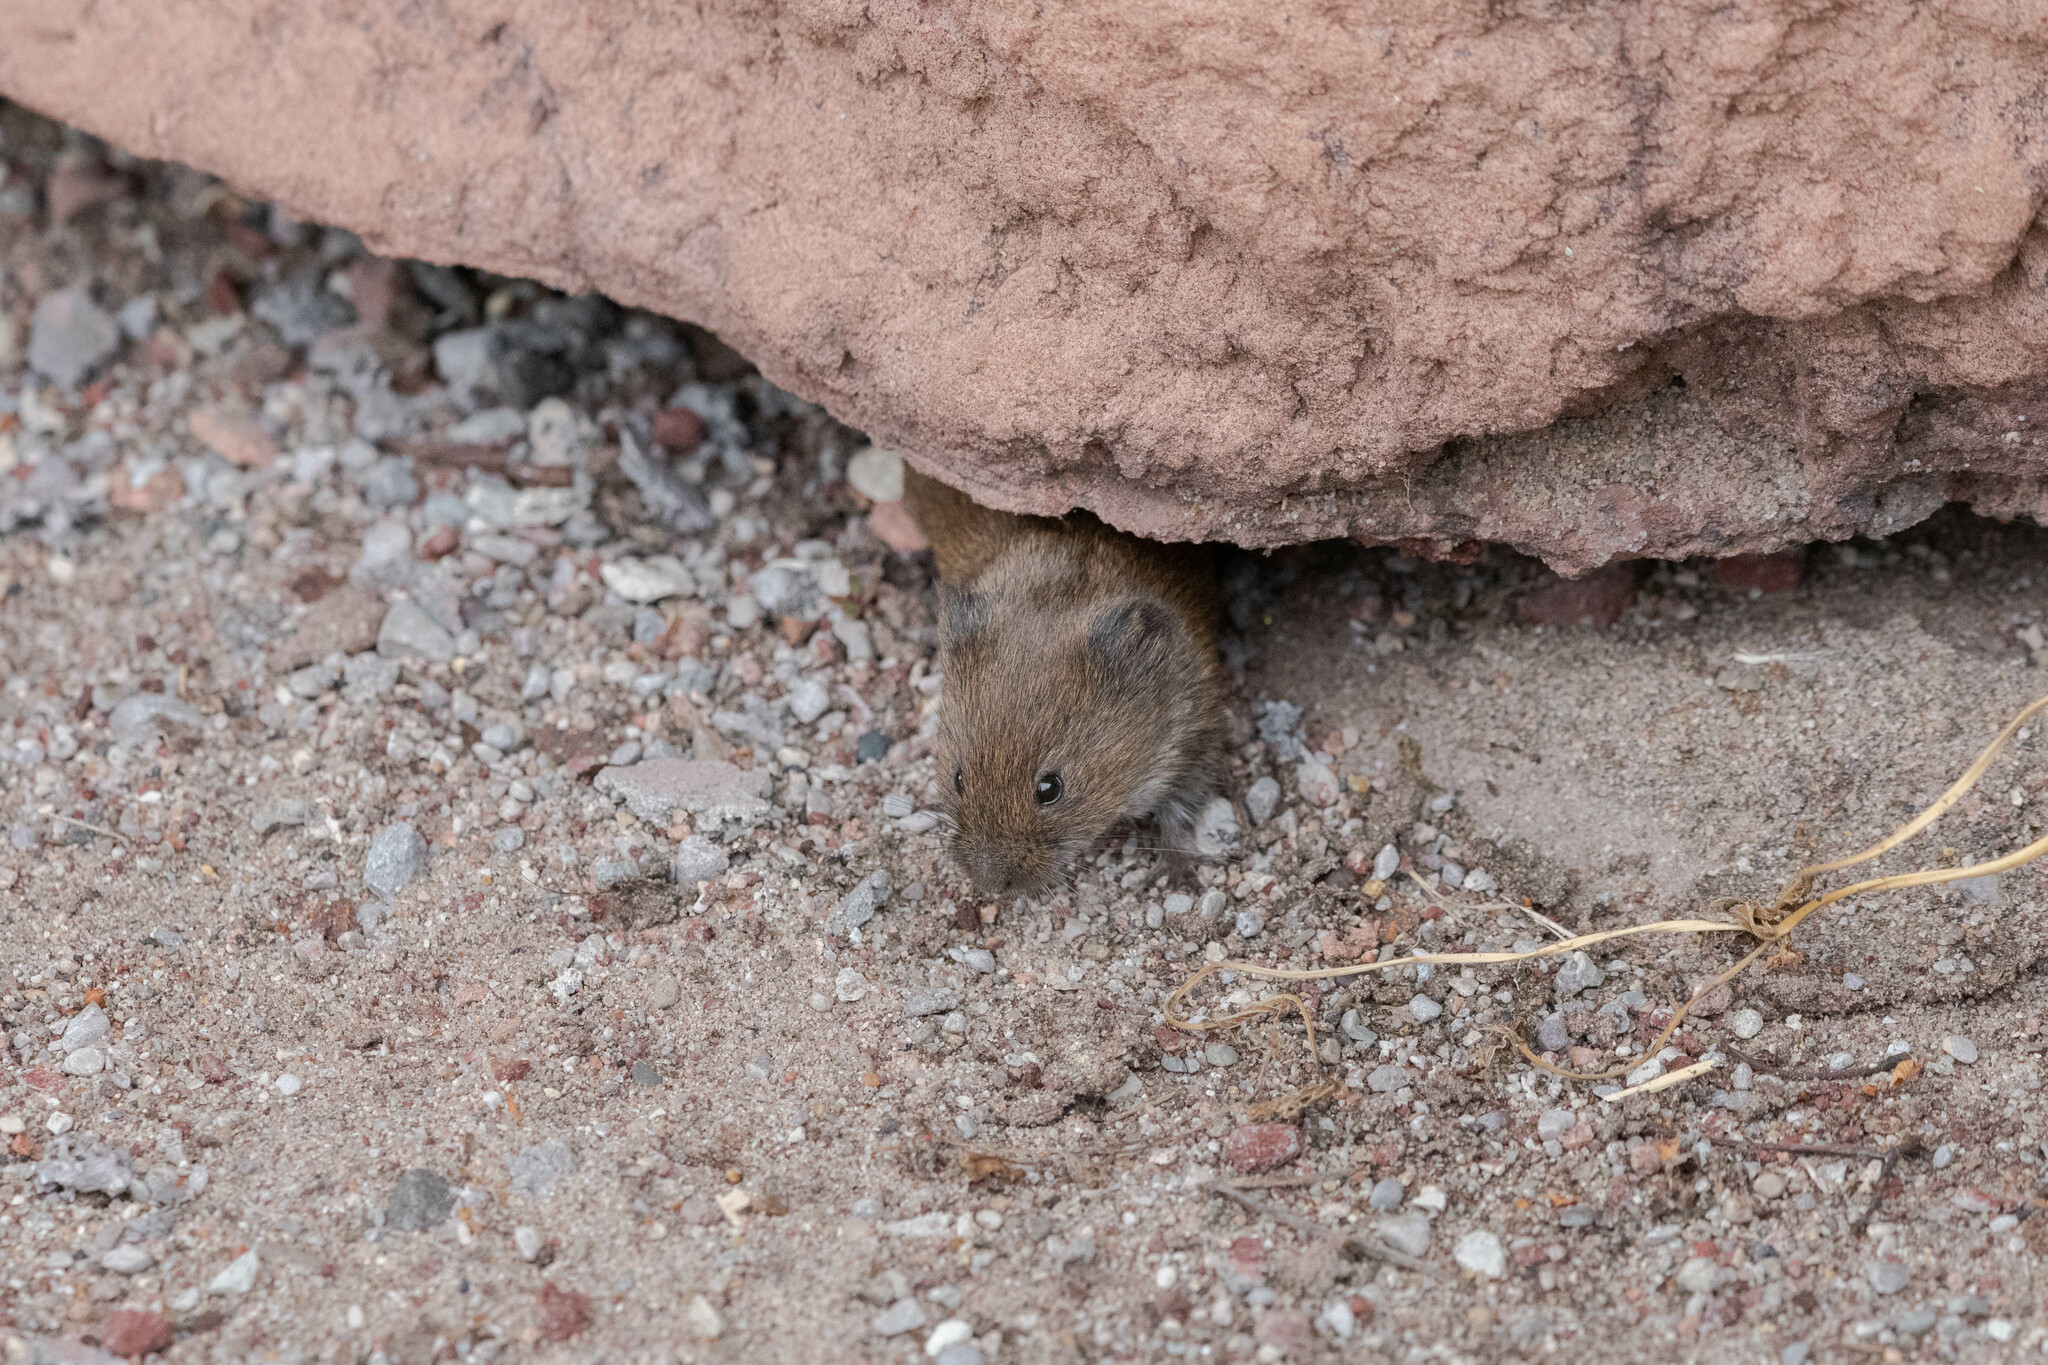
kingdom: Animalia
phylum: Chordata
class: Mammalia
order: Rodentia
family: Cricetidae
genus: Microtus
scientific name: Microtus pennsylvanicus
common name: Meadow vole
